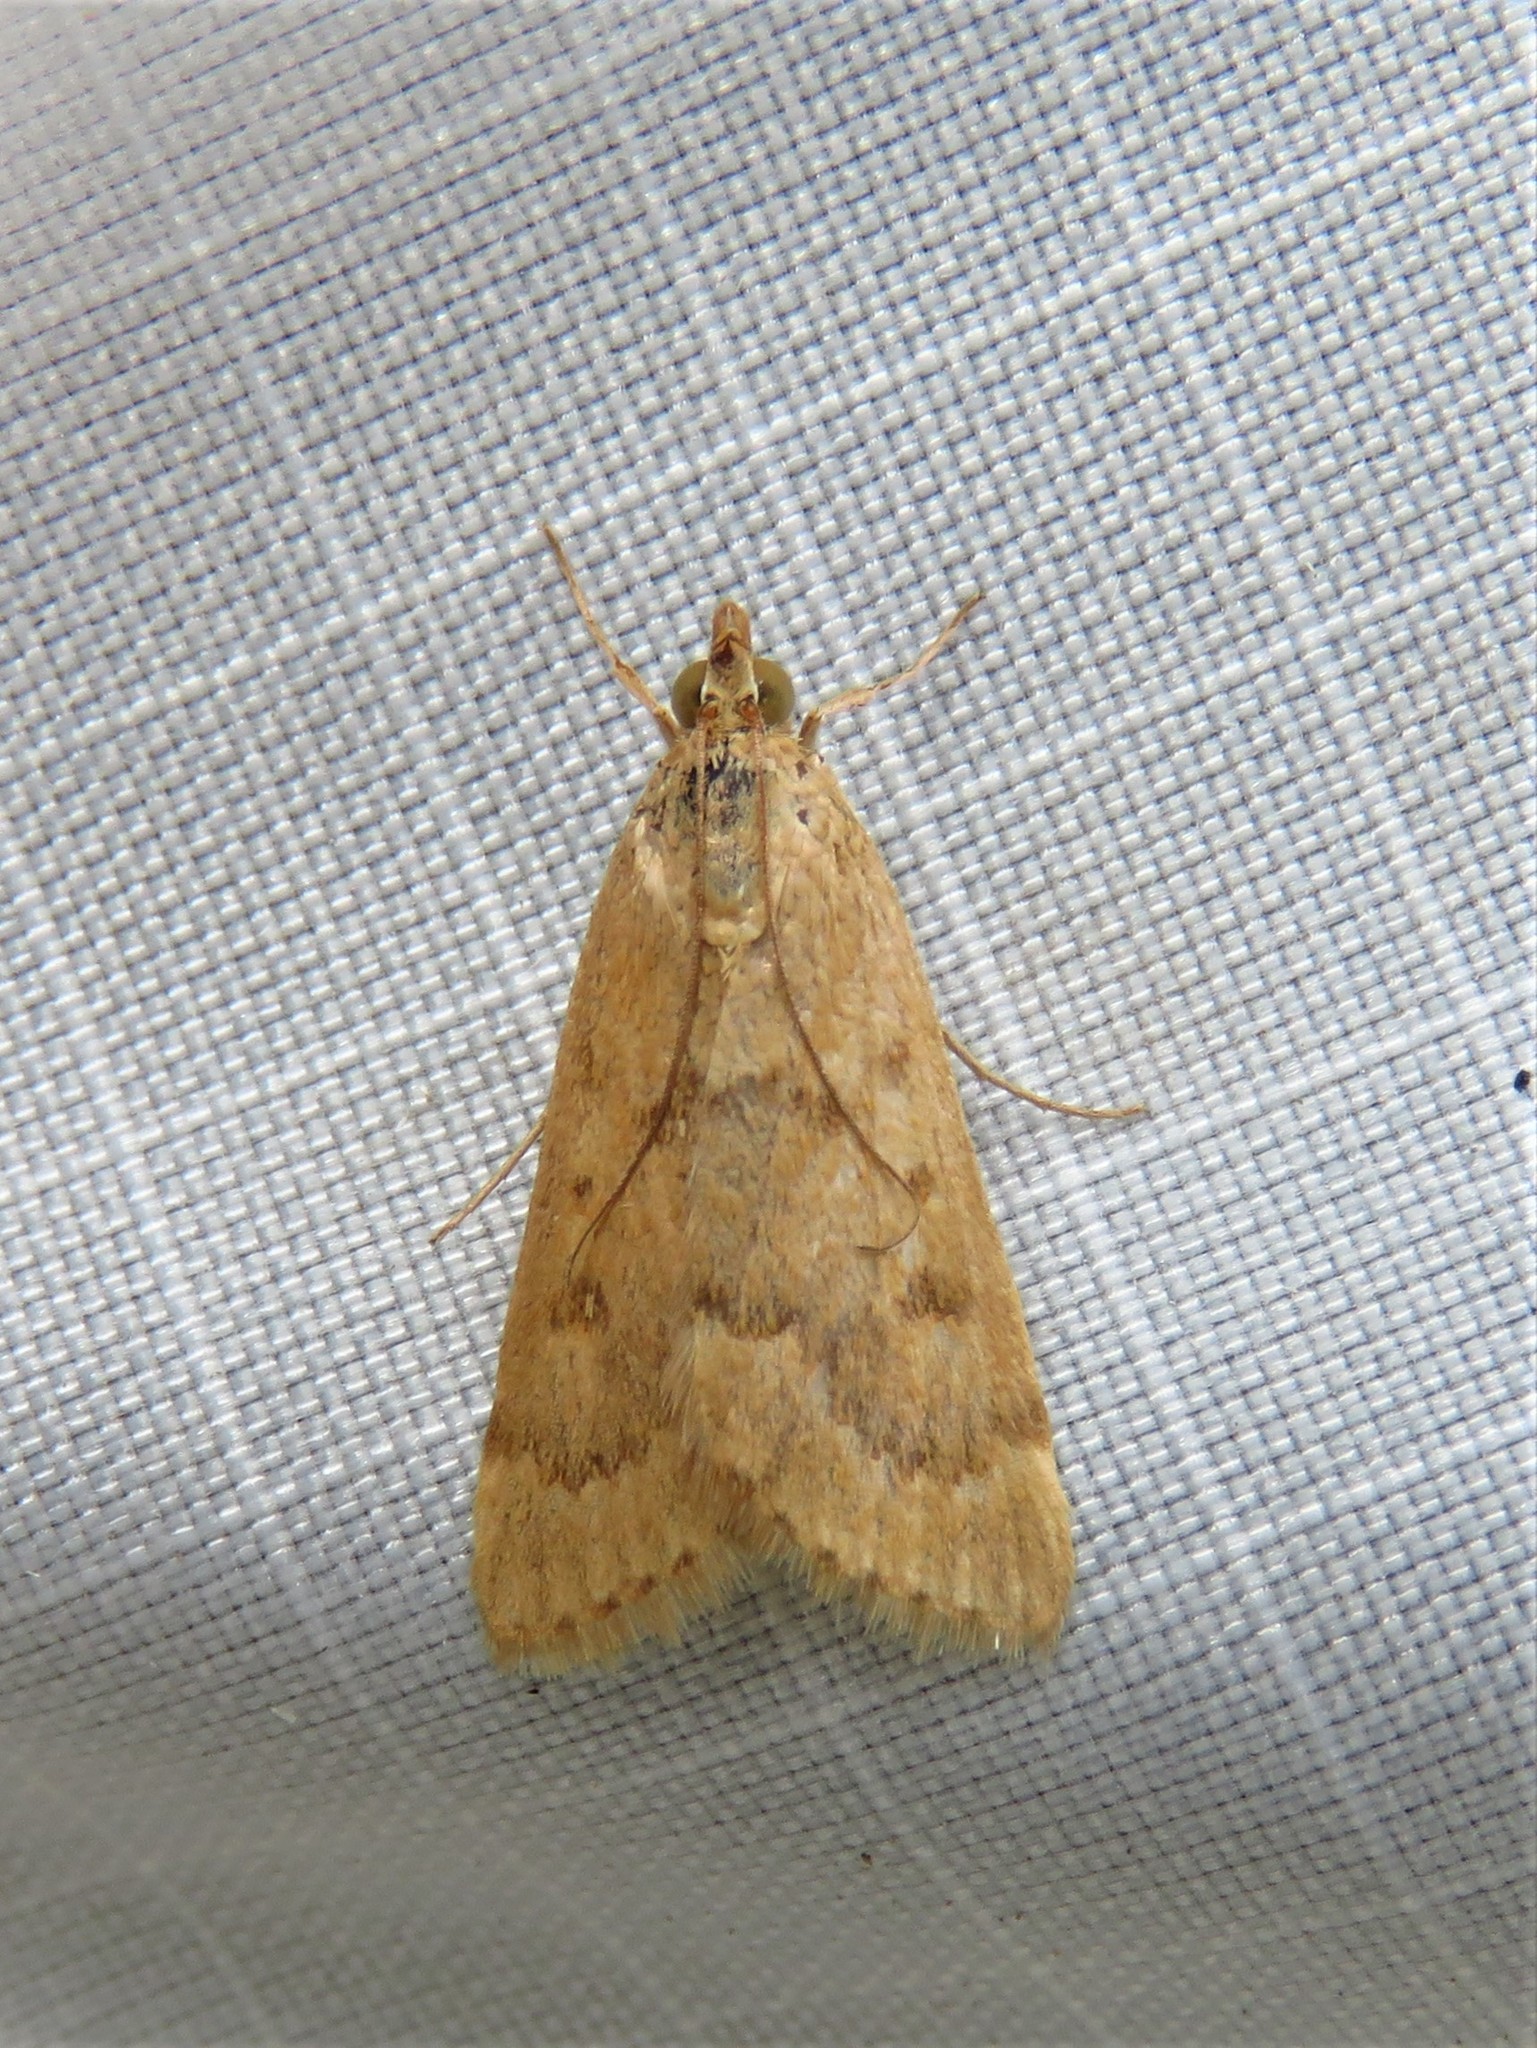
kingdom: Animalia
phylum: Arthropoda
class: Insecta
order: Lepidoptera
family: Crambidae
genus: Achyra
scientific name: Achyra rantalis
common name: Garden webworm
